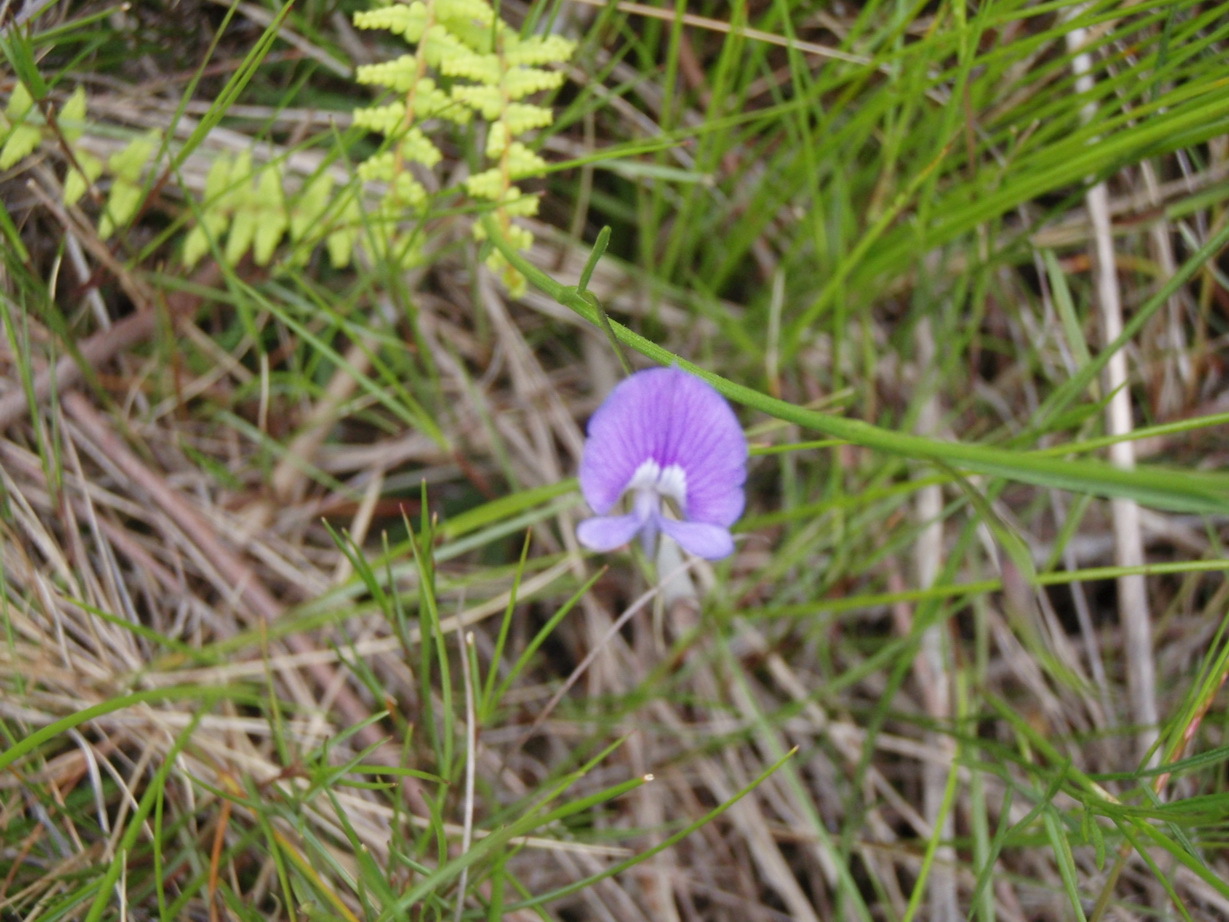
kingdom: Plantae
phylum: Tracheophyta
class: Magnoliopsida
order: Fabales
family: Fabaceae
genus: Psoralea
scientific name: Psoralea trullata
